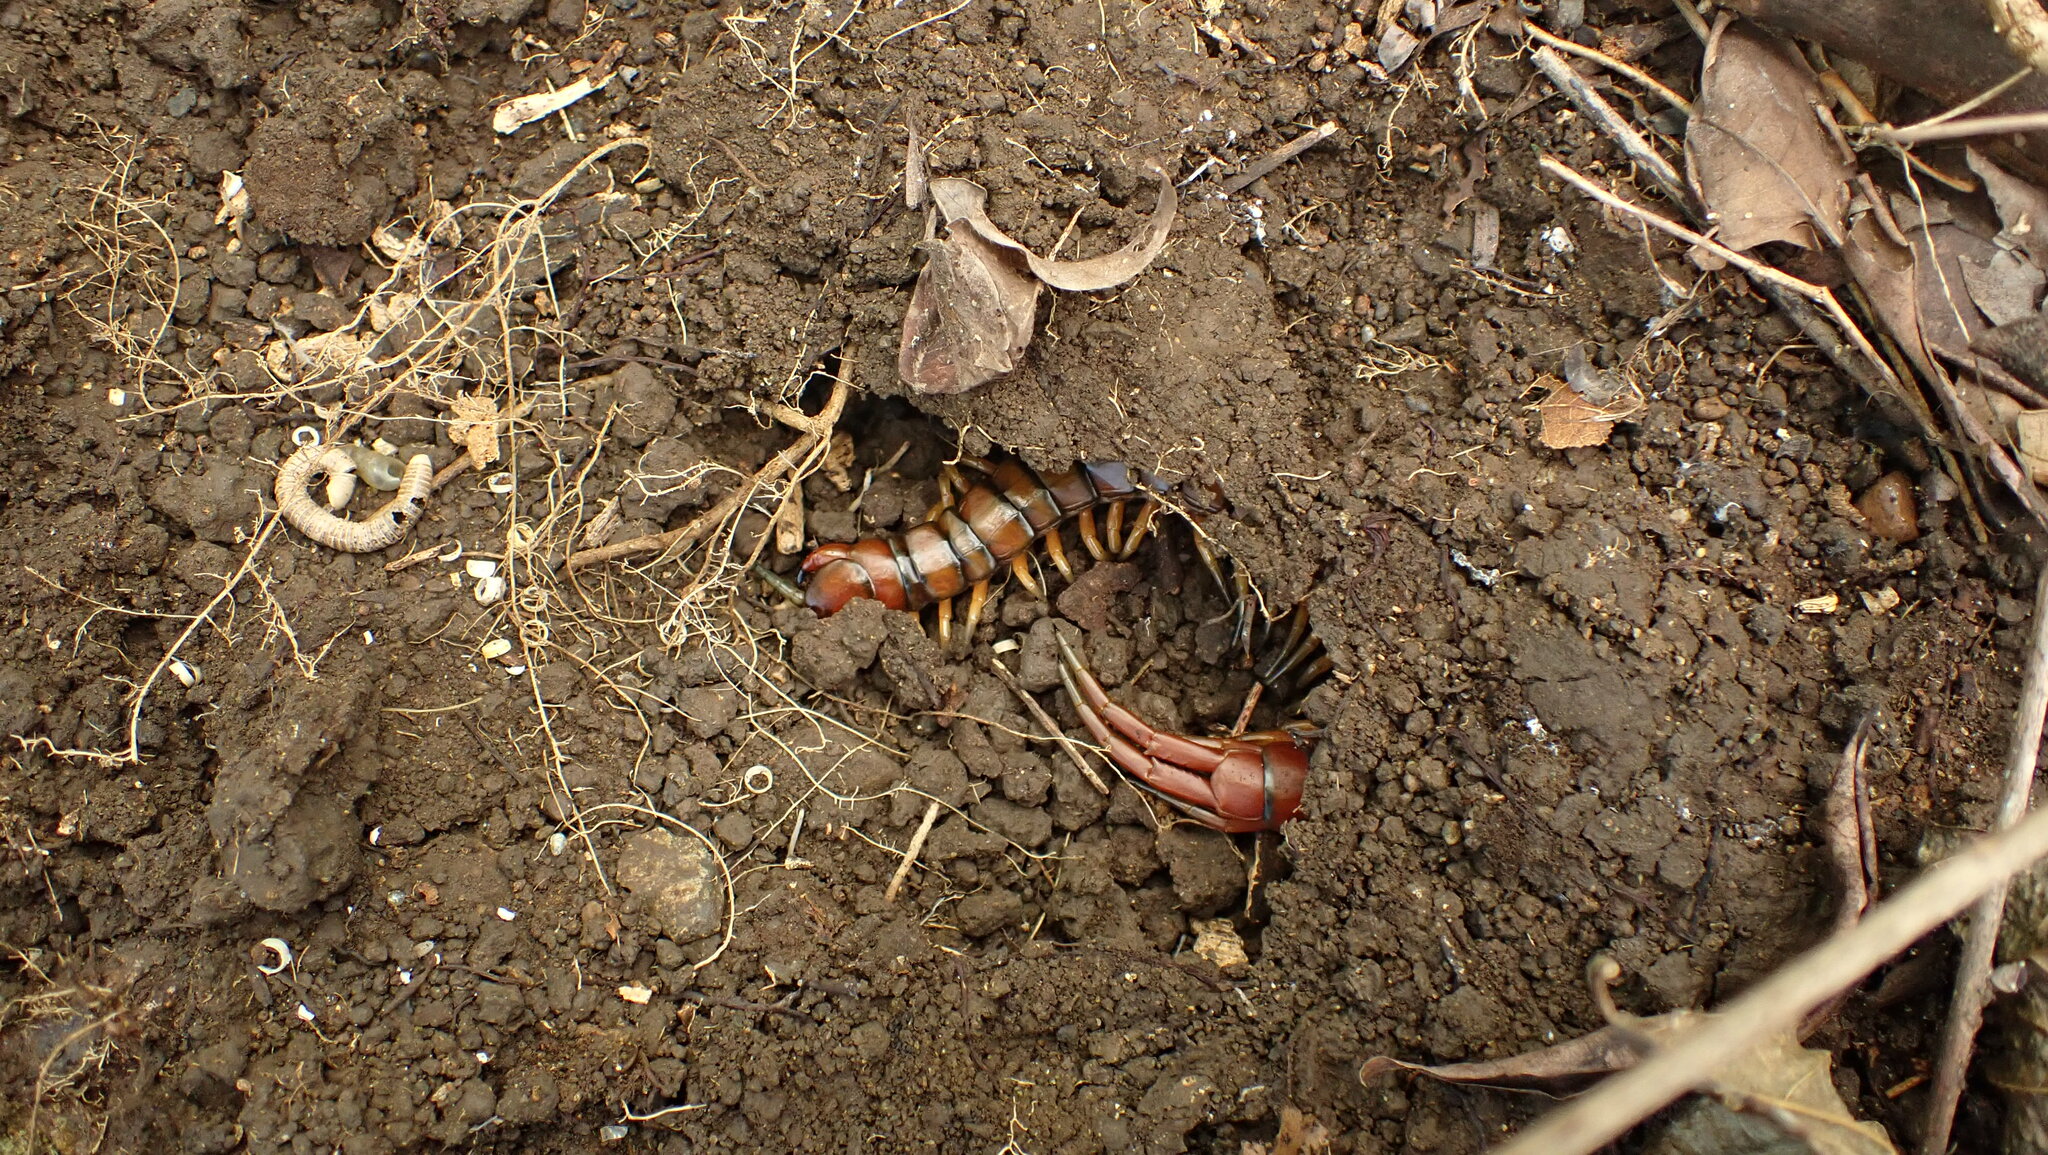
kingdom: Animalia
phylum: Arthropoda
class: Chilopoda
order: Scolopendromorpha
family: Scolopendridae
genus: Scolopendra
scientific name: Scolopendra alternans
